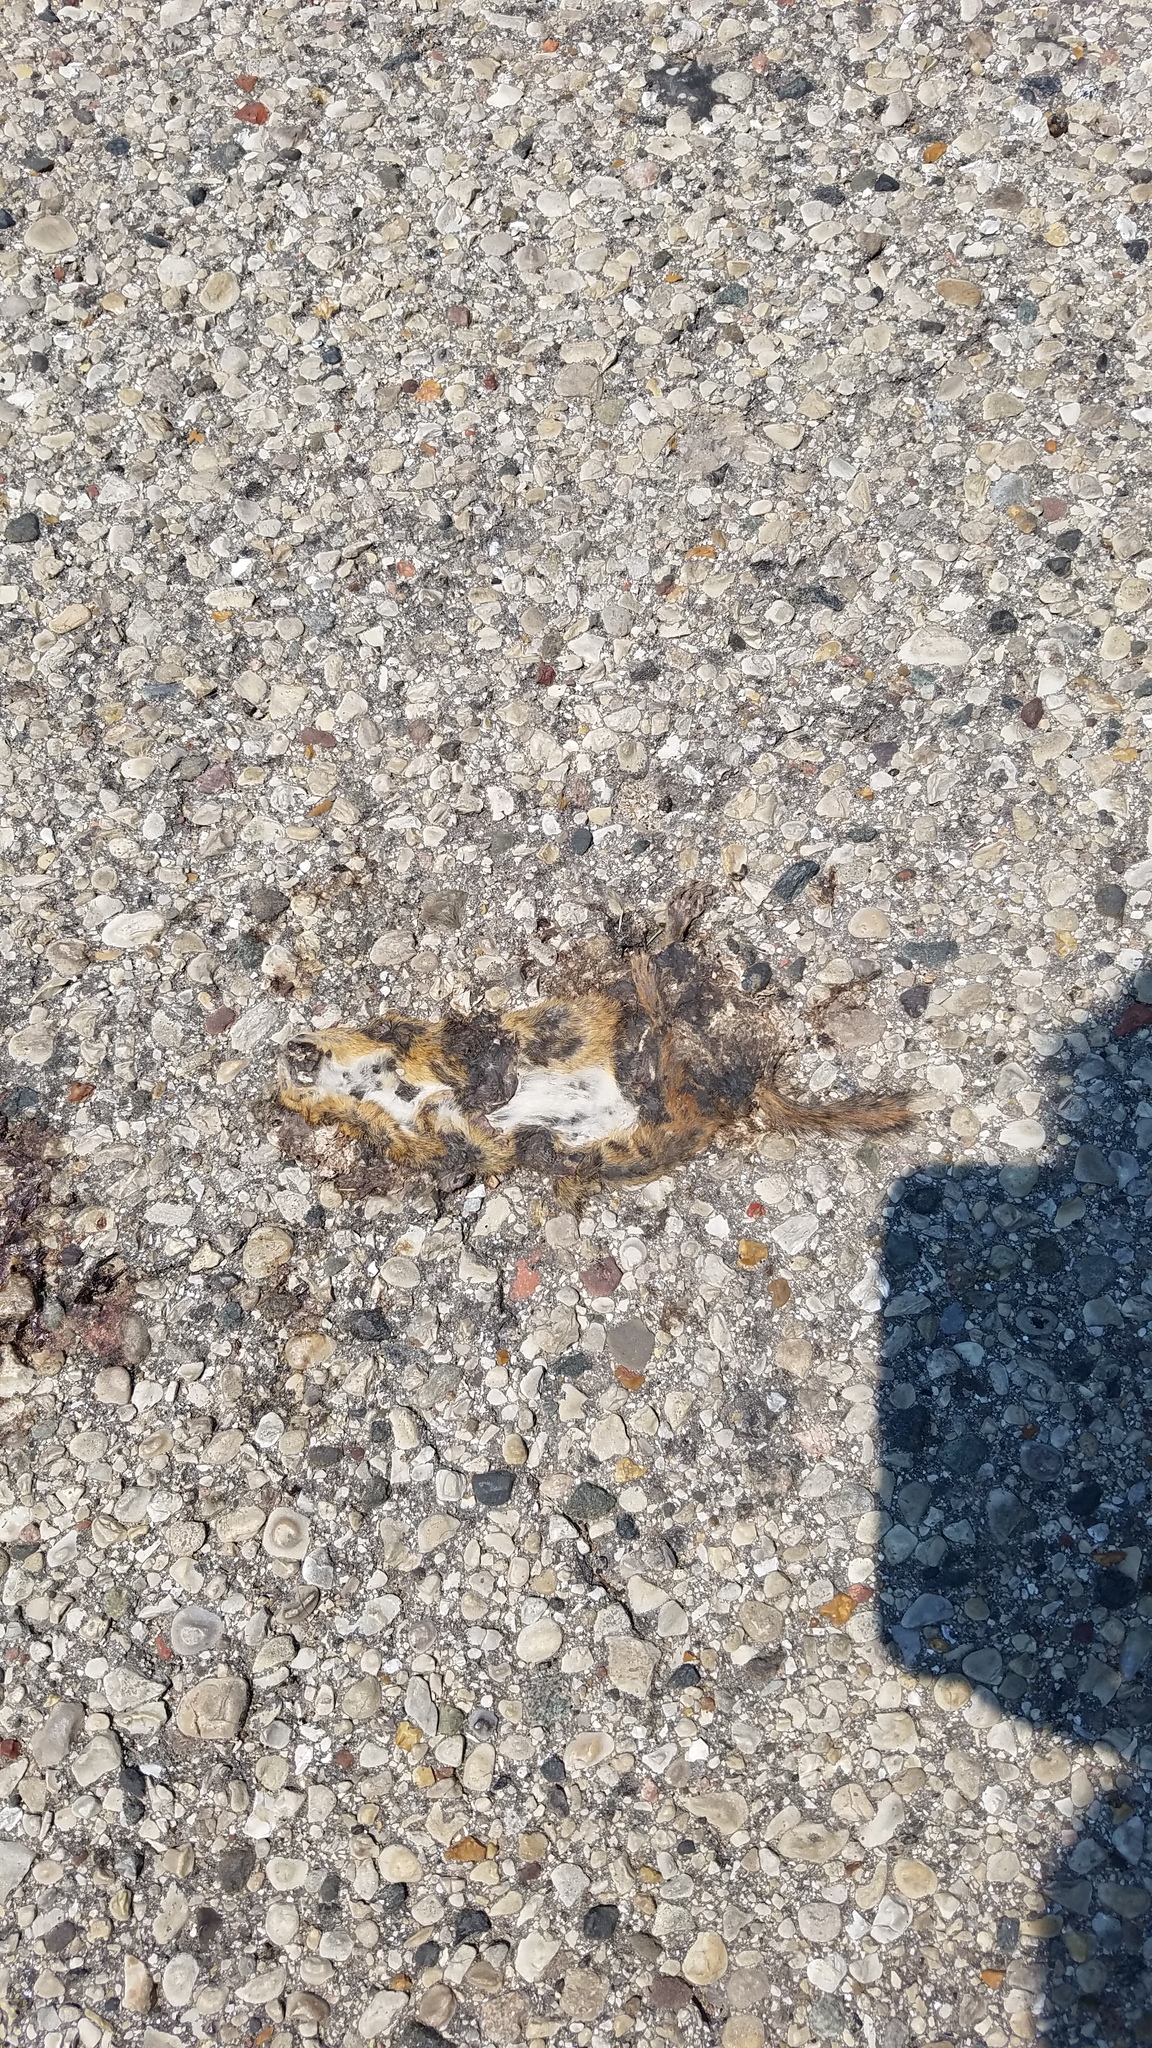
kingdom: Animalia
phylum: Chordata
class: Mammalia
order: Rodentia
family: Sciuridae
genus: Tamias
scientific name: Tamias striatus
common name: Eastern chipmunk
